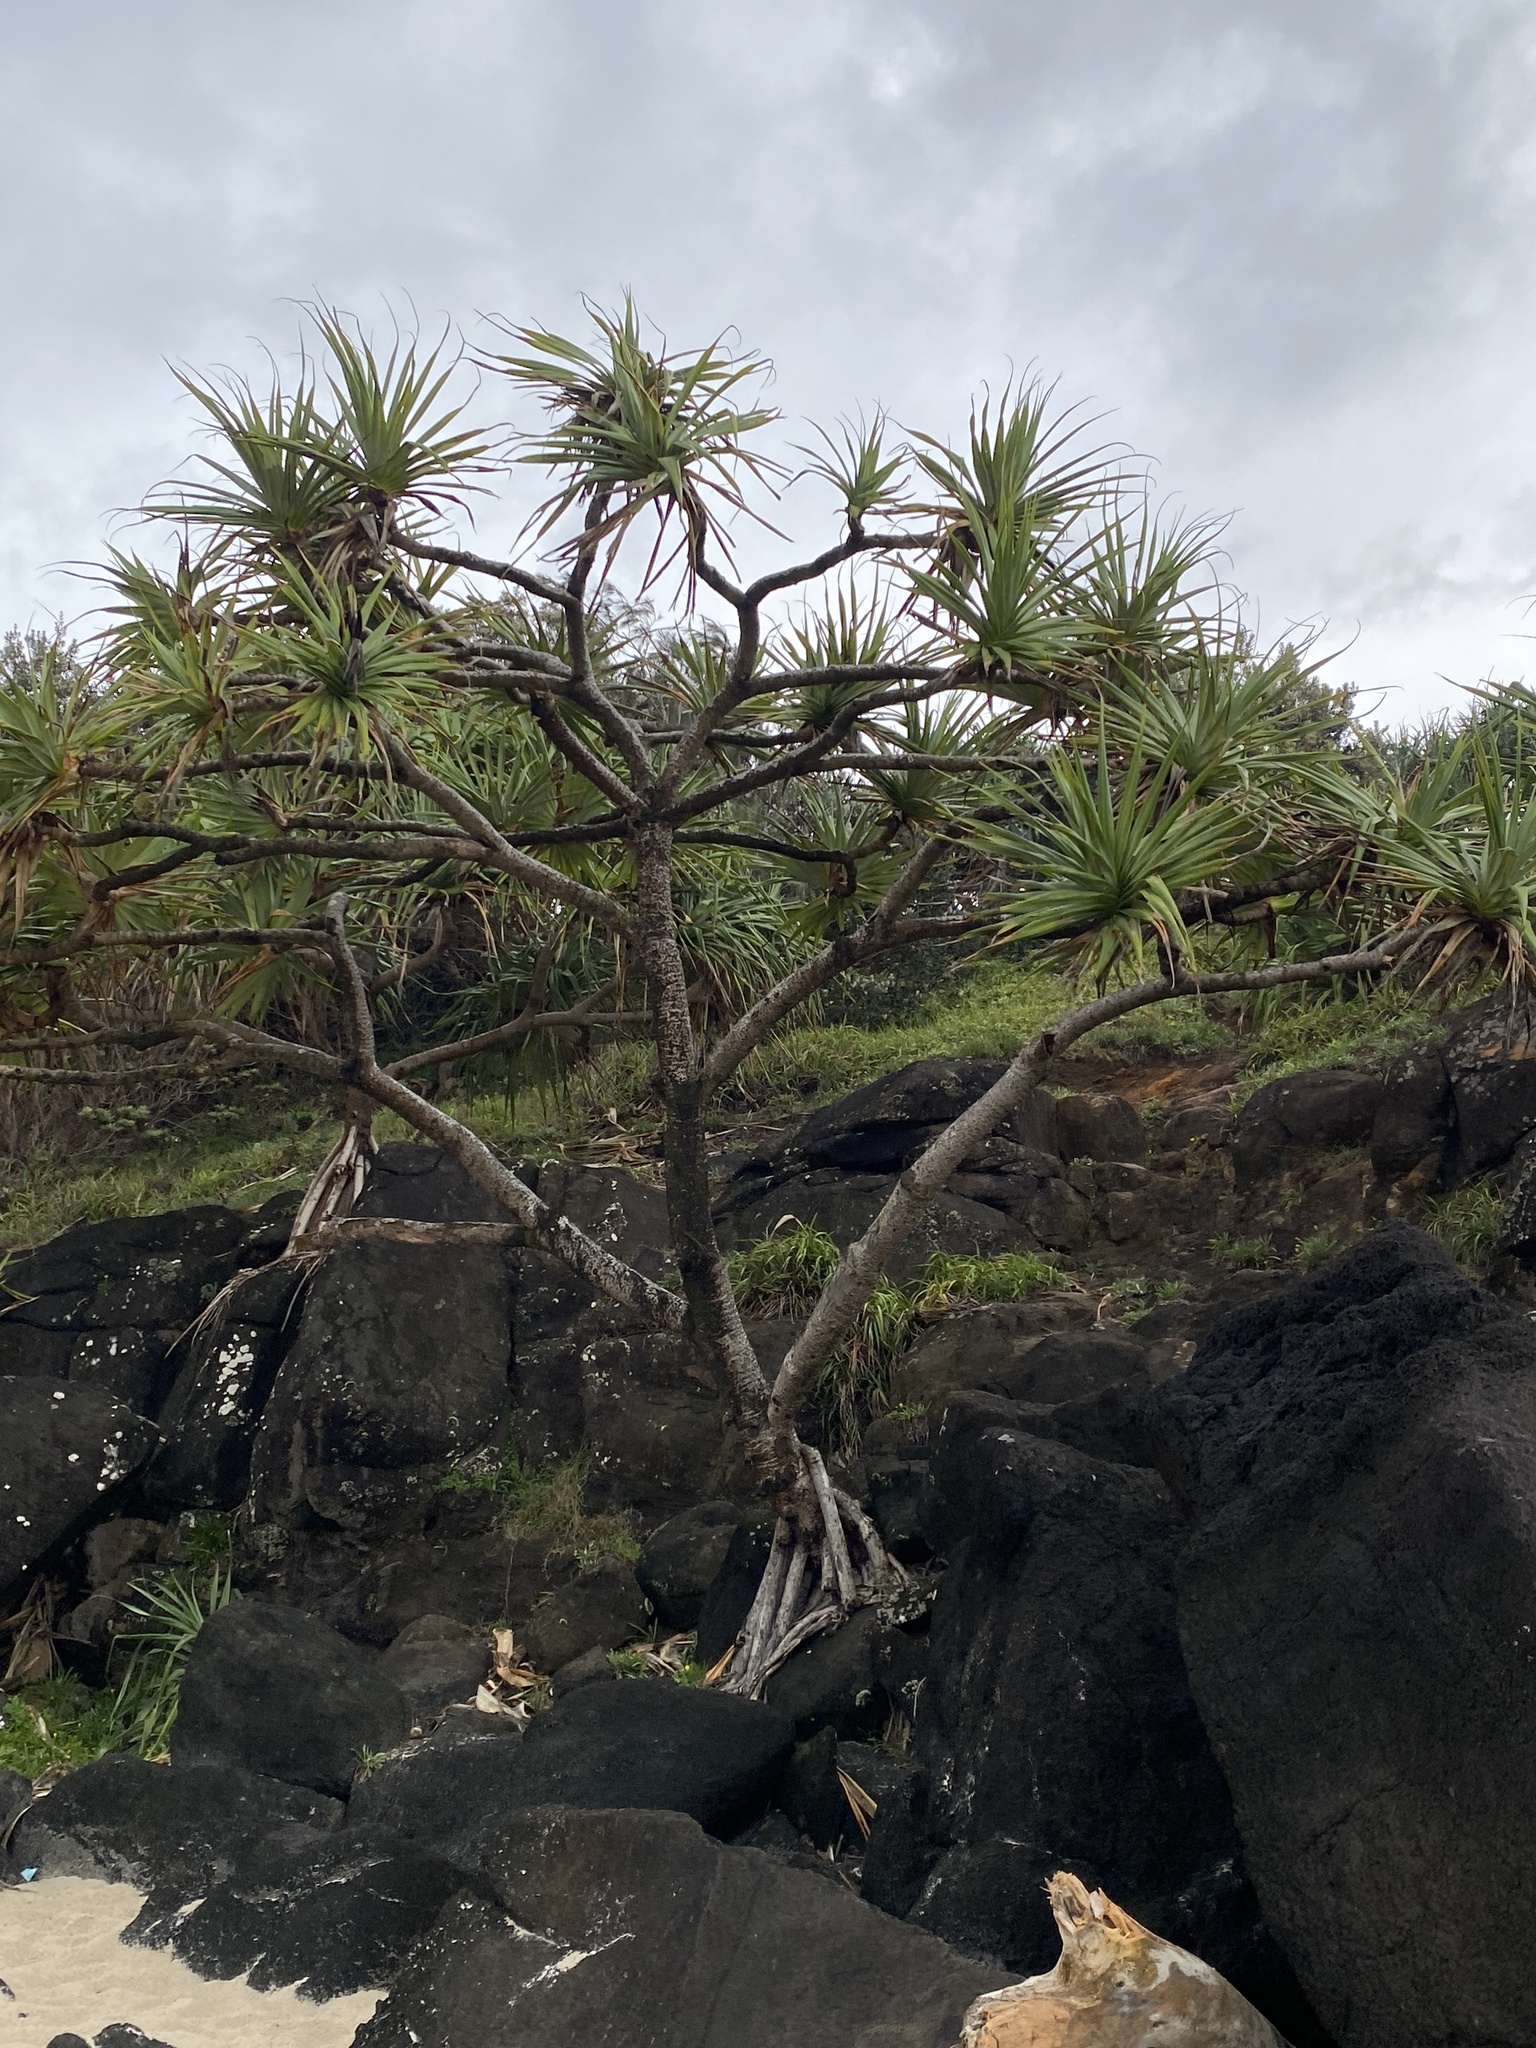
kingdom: Plantae
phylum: Tracheophyta
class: Liliopsida
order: Pandanales
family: Pandanaceae
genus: Pandanus
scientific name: Pandanus tectorius
